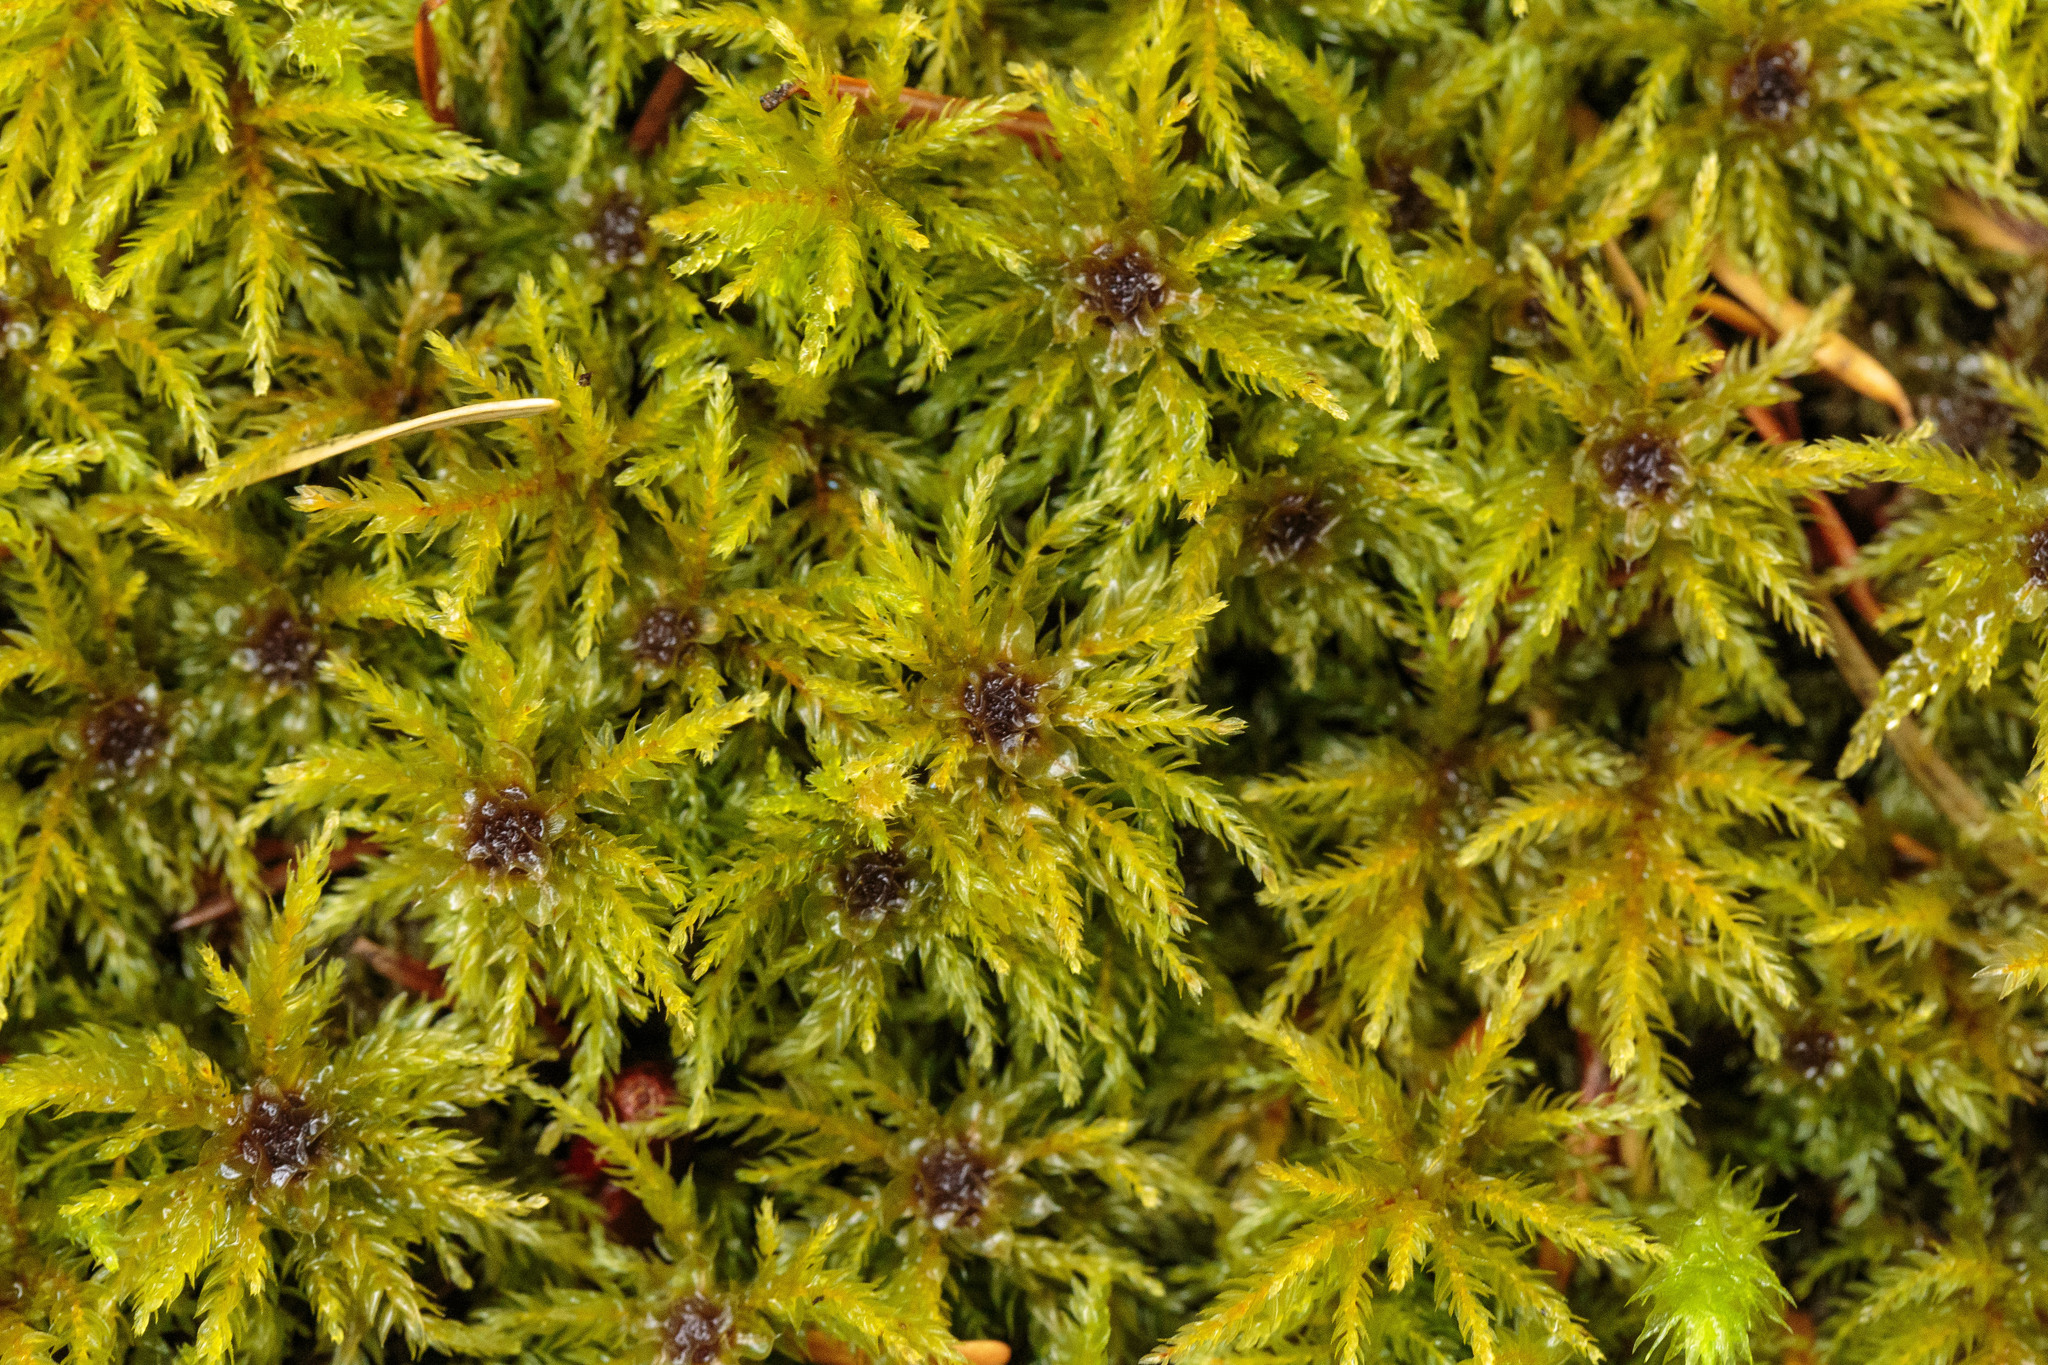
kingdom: Plantae
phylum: Bryophyta
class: Bryopsida
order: Bryales
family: Mniaceae
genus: Leucolepis
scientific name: Leucolepis acanthoneura
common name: Leucolepis umbrella moss
